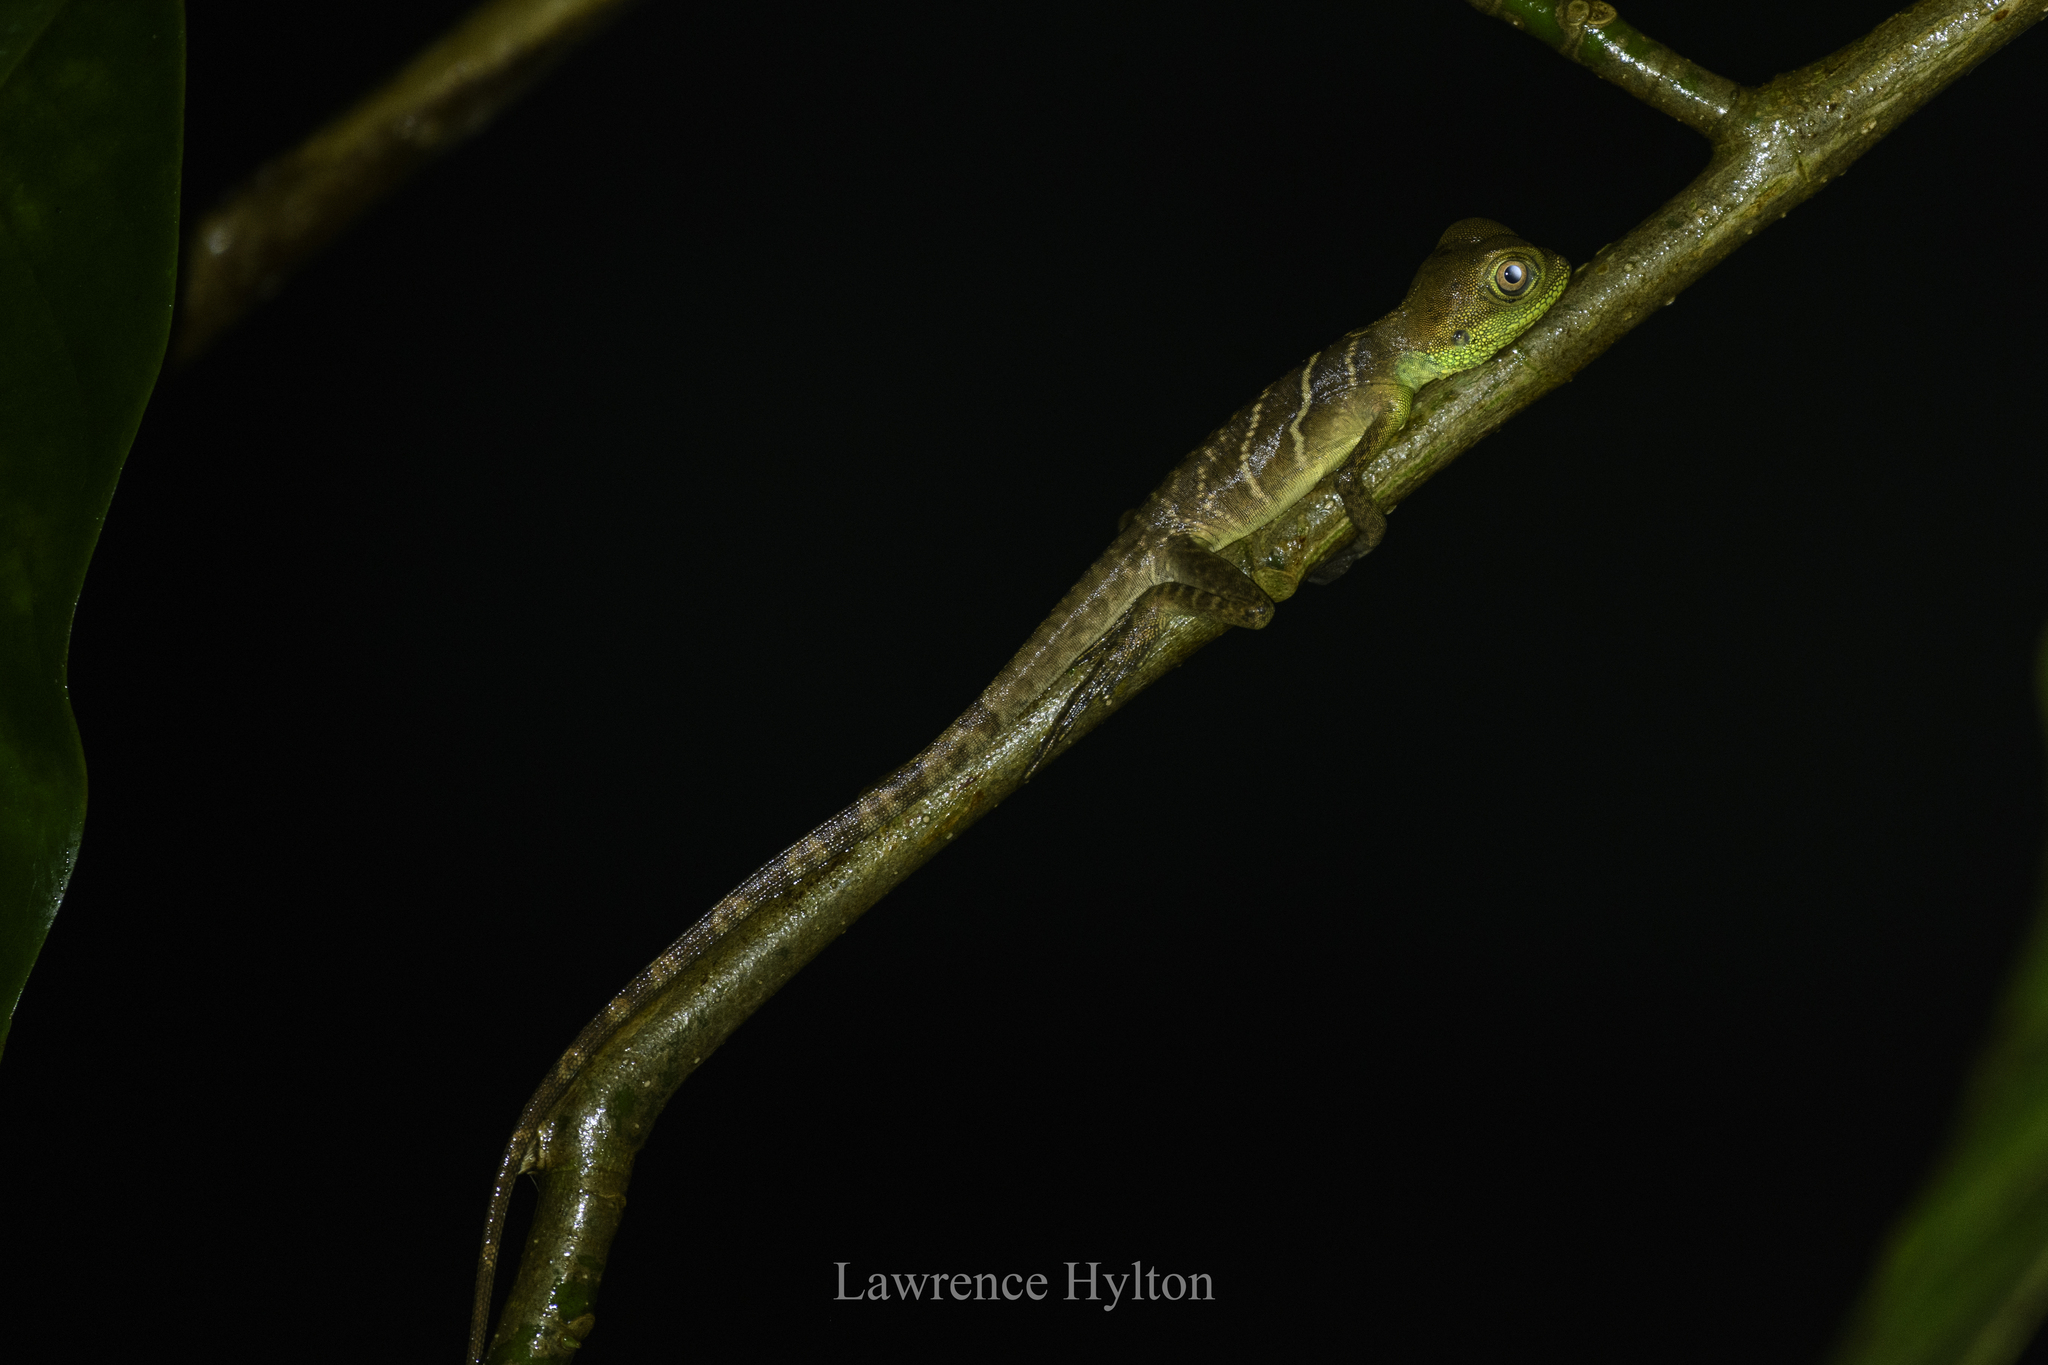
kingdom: Animalia
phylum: Chordata
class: Squamata
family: Agamidae
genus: Physignathus
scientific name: Physignathus cocincinus
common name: Asian water dragon
